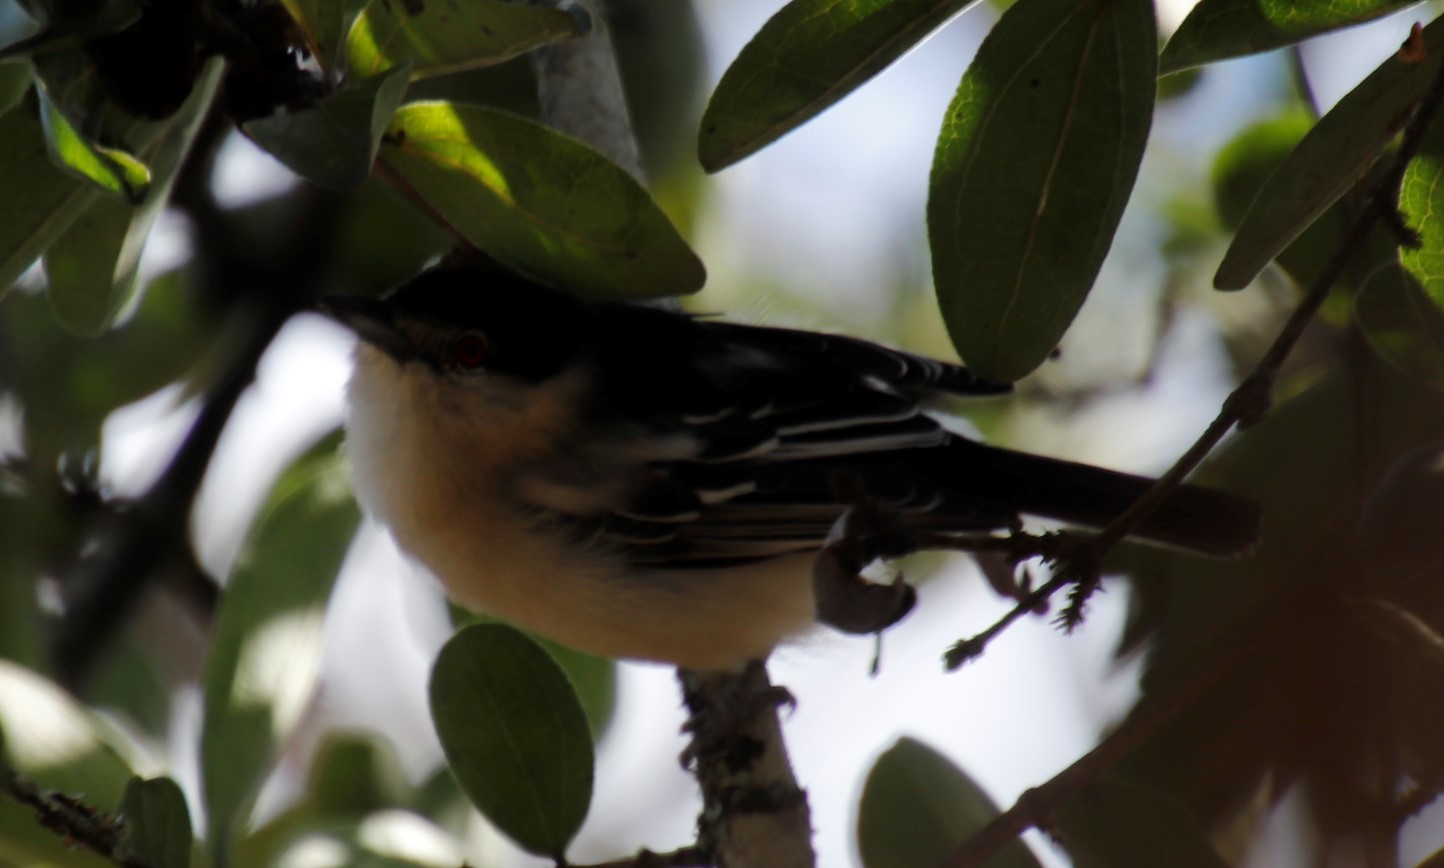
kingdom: Animalia
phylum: Chordata
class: Aves
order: Passeriformes
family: Malaconotidae
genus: Dryoscopus
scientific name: Dryoscopus cubla
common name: Black-backed puffback
